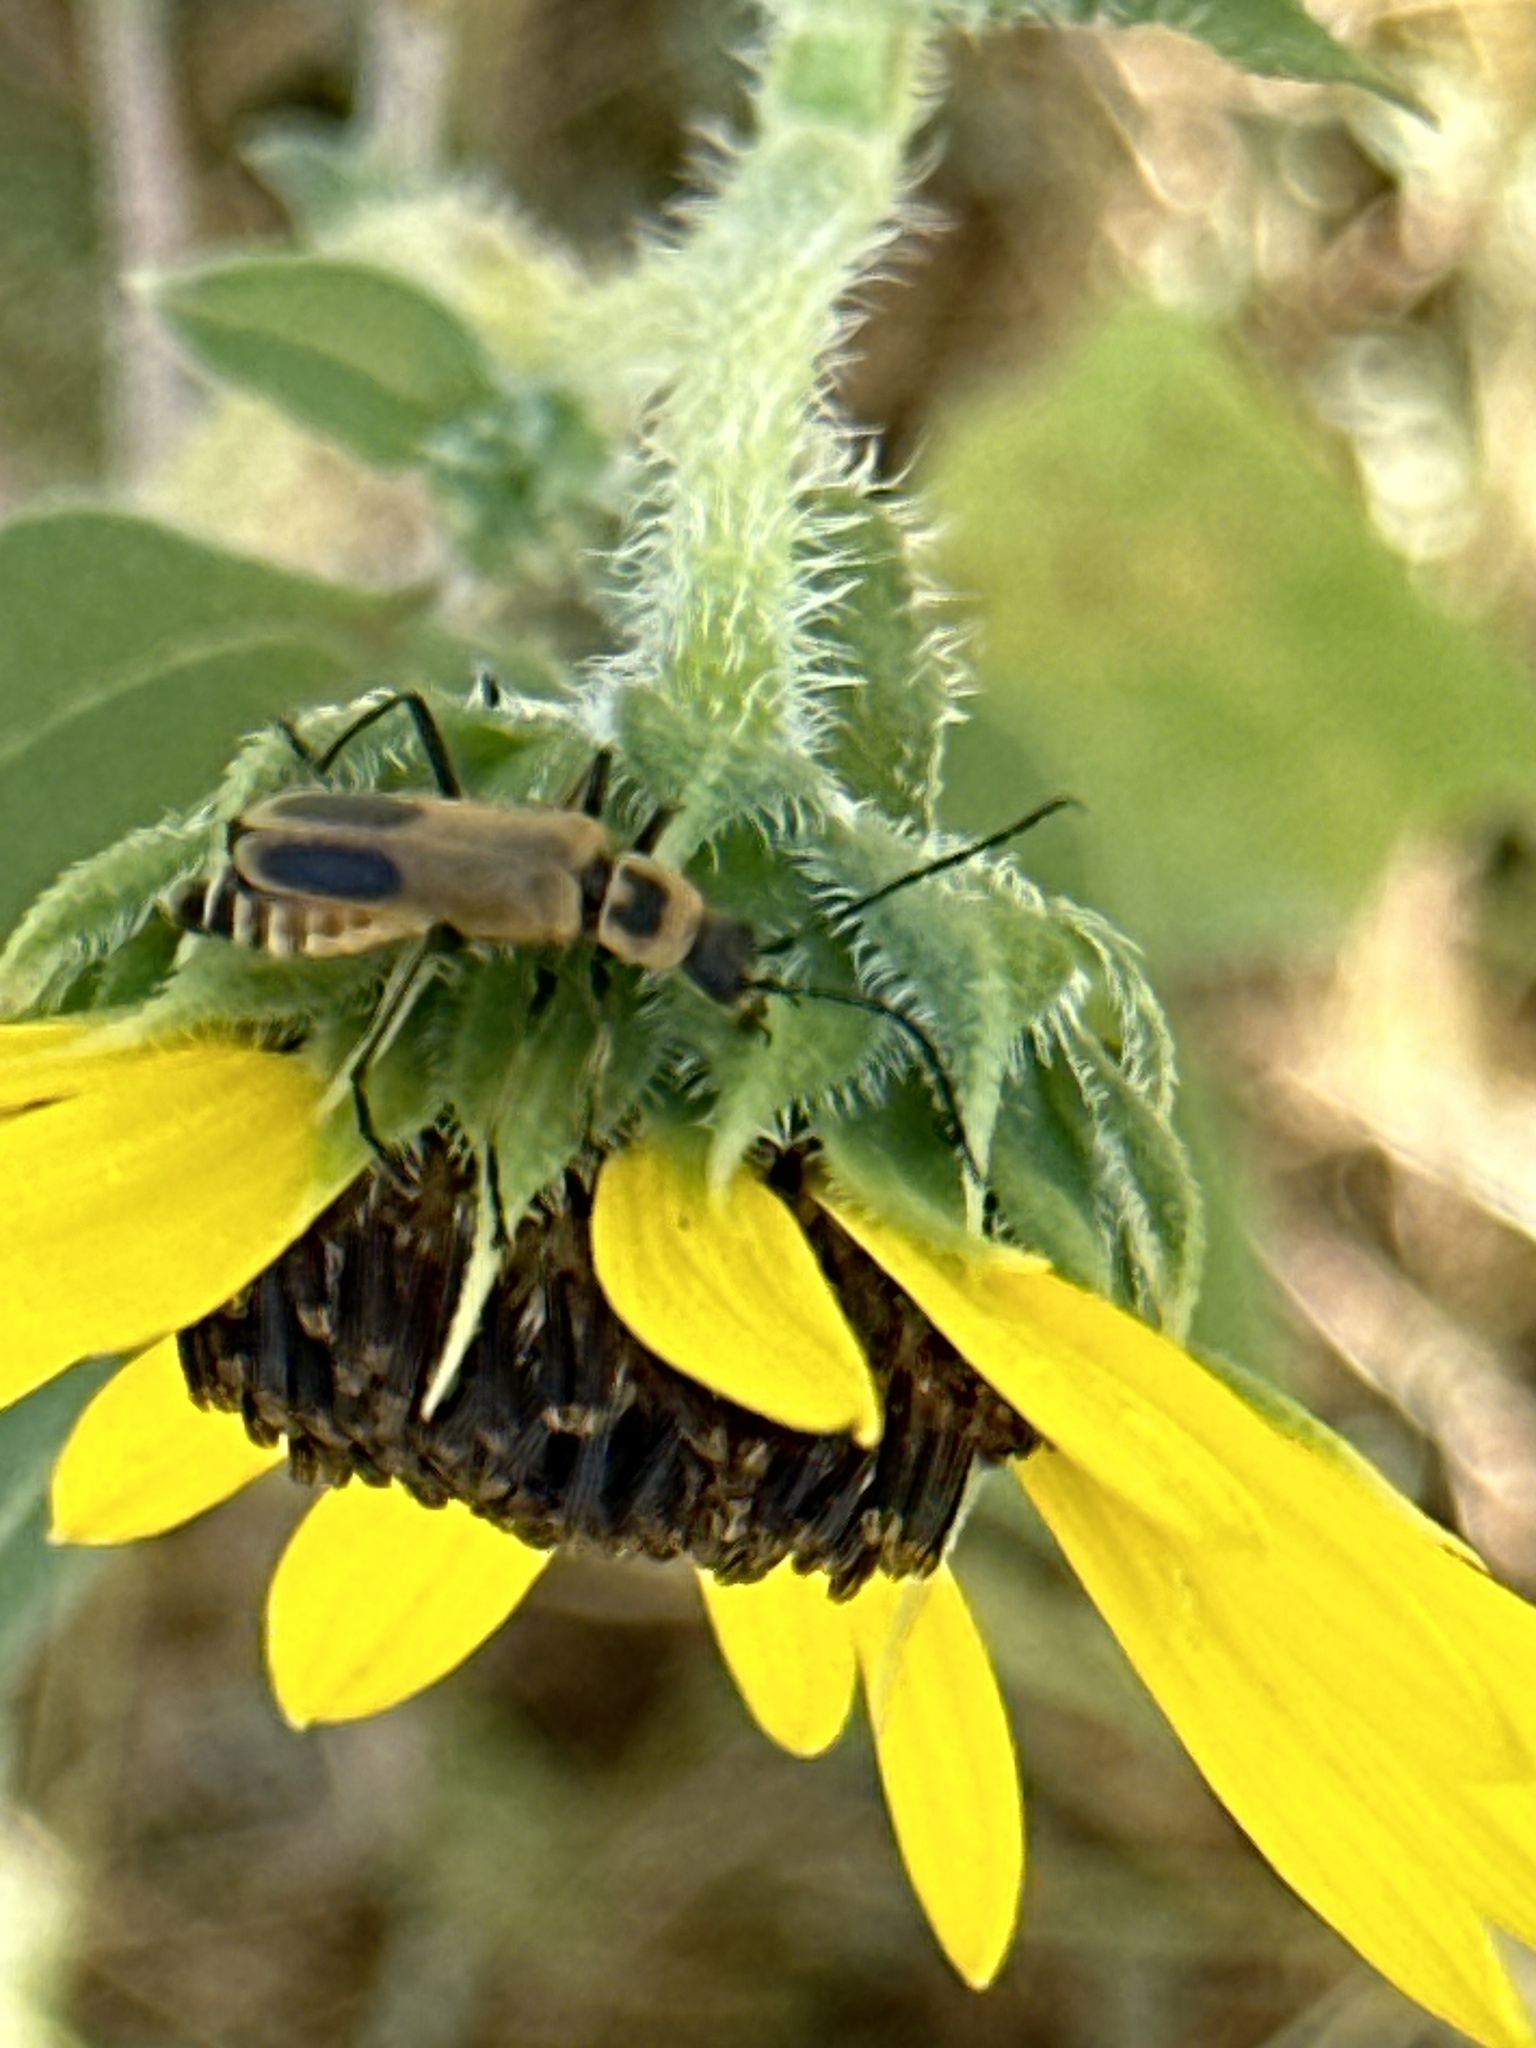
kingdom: Animalia
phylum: Arthropoda
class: Insecta
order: Coleoptera
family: Cantharidae
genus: Chauliognathus
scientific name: Chauliognathus pensylvanicus
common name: Goldenrod soldier beetle
